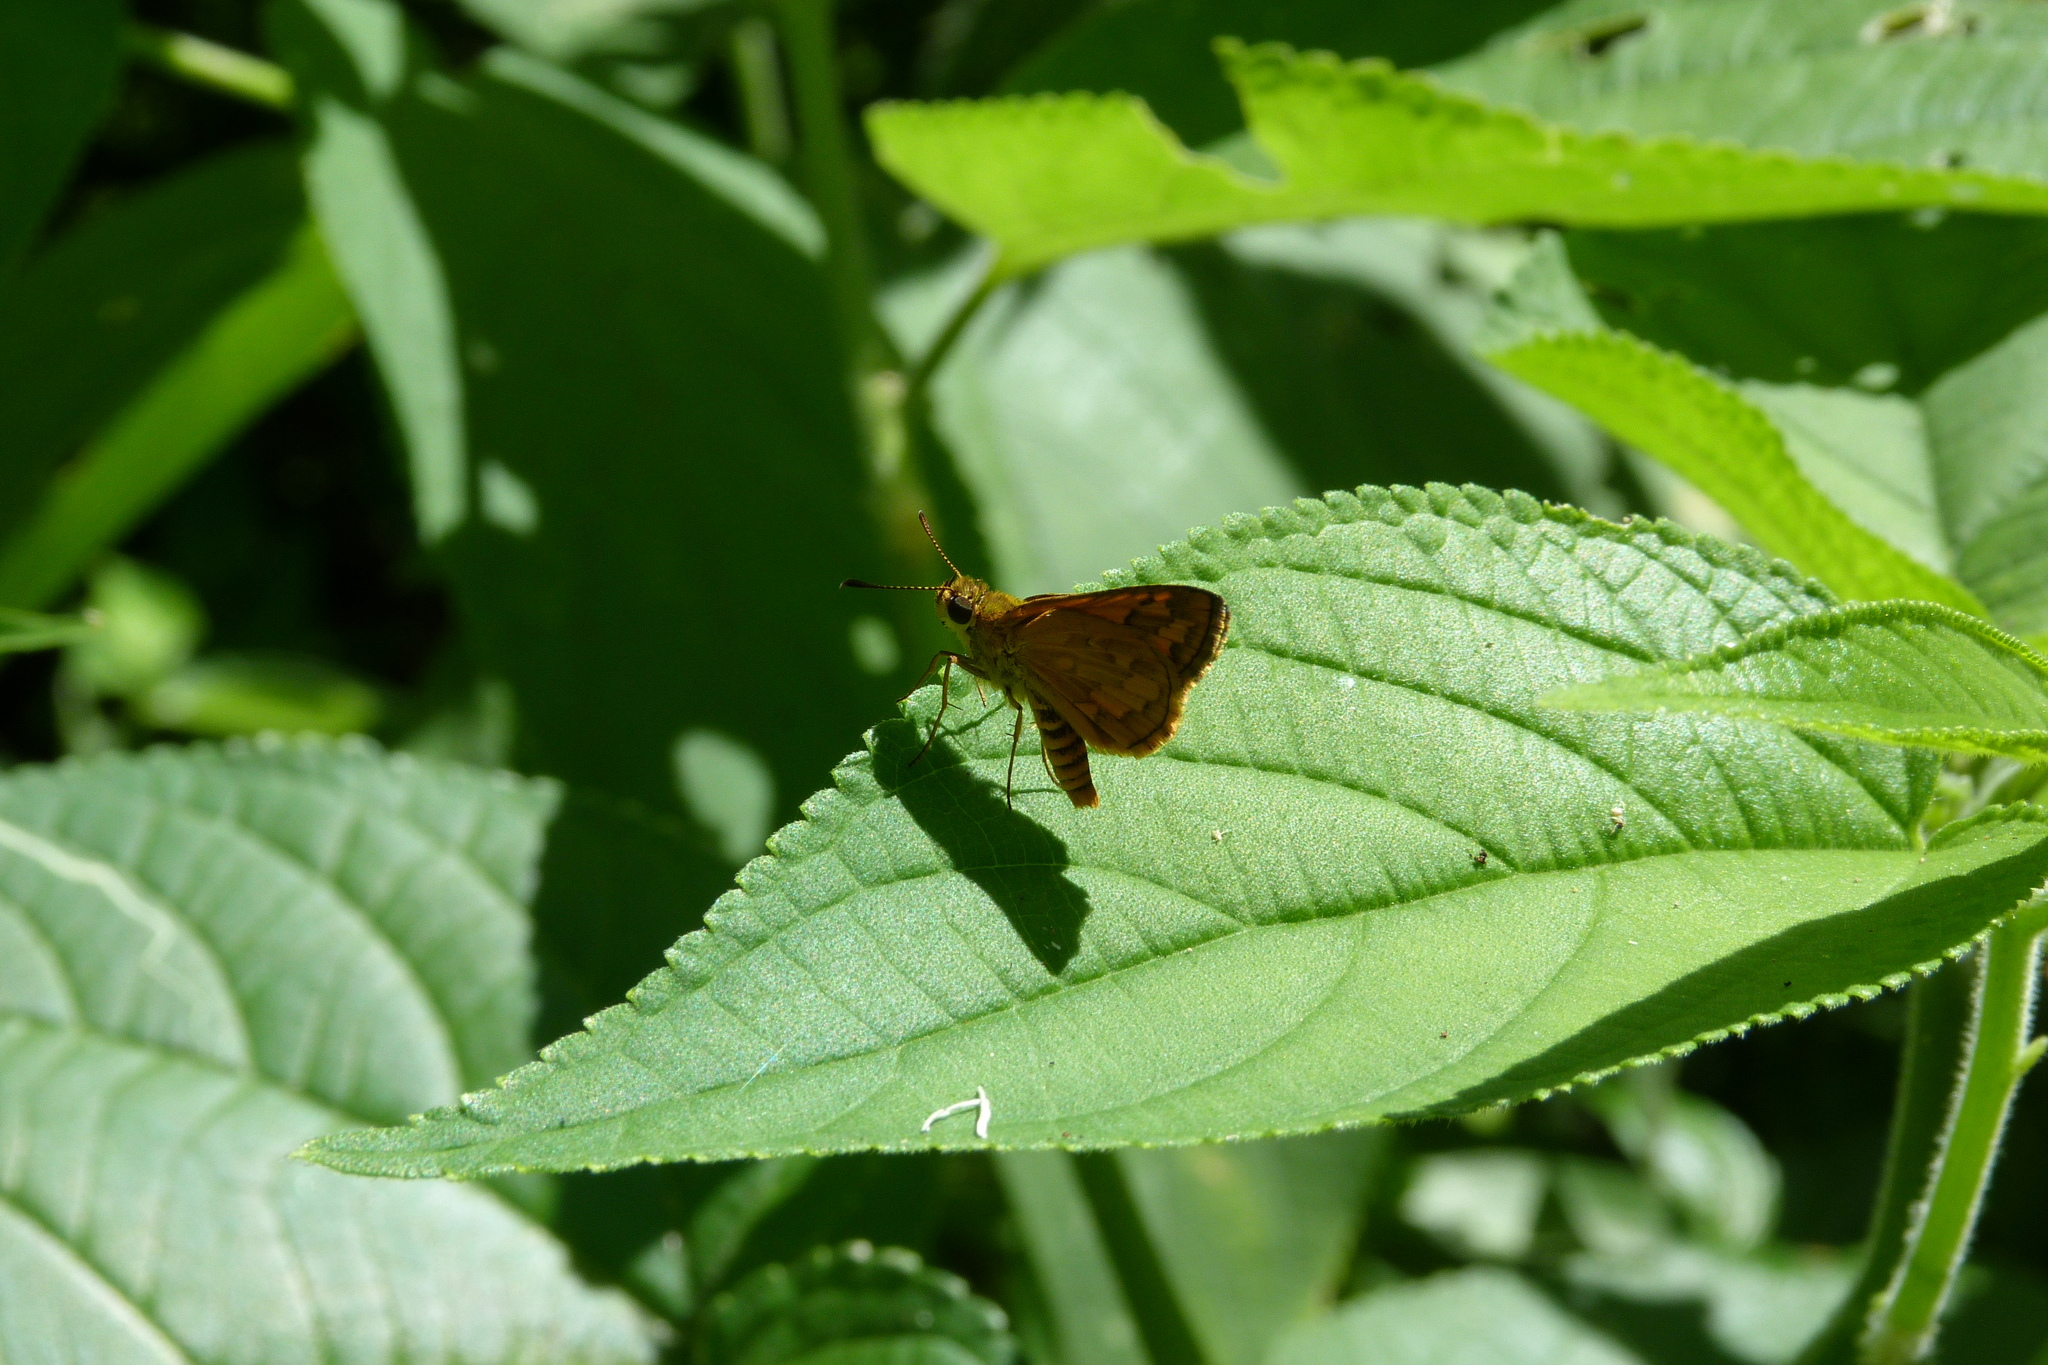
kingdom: Animalia
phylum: Arthropoda
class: Insecta
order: Lepidoptera
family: Hesperiidae
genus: Suniana
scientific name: Suniana sunias
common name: Wide-brand grass-dart
